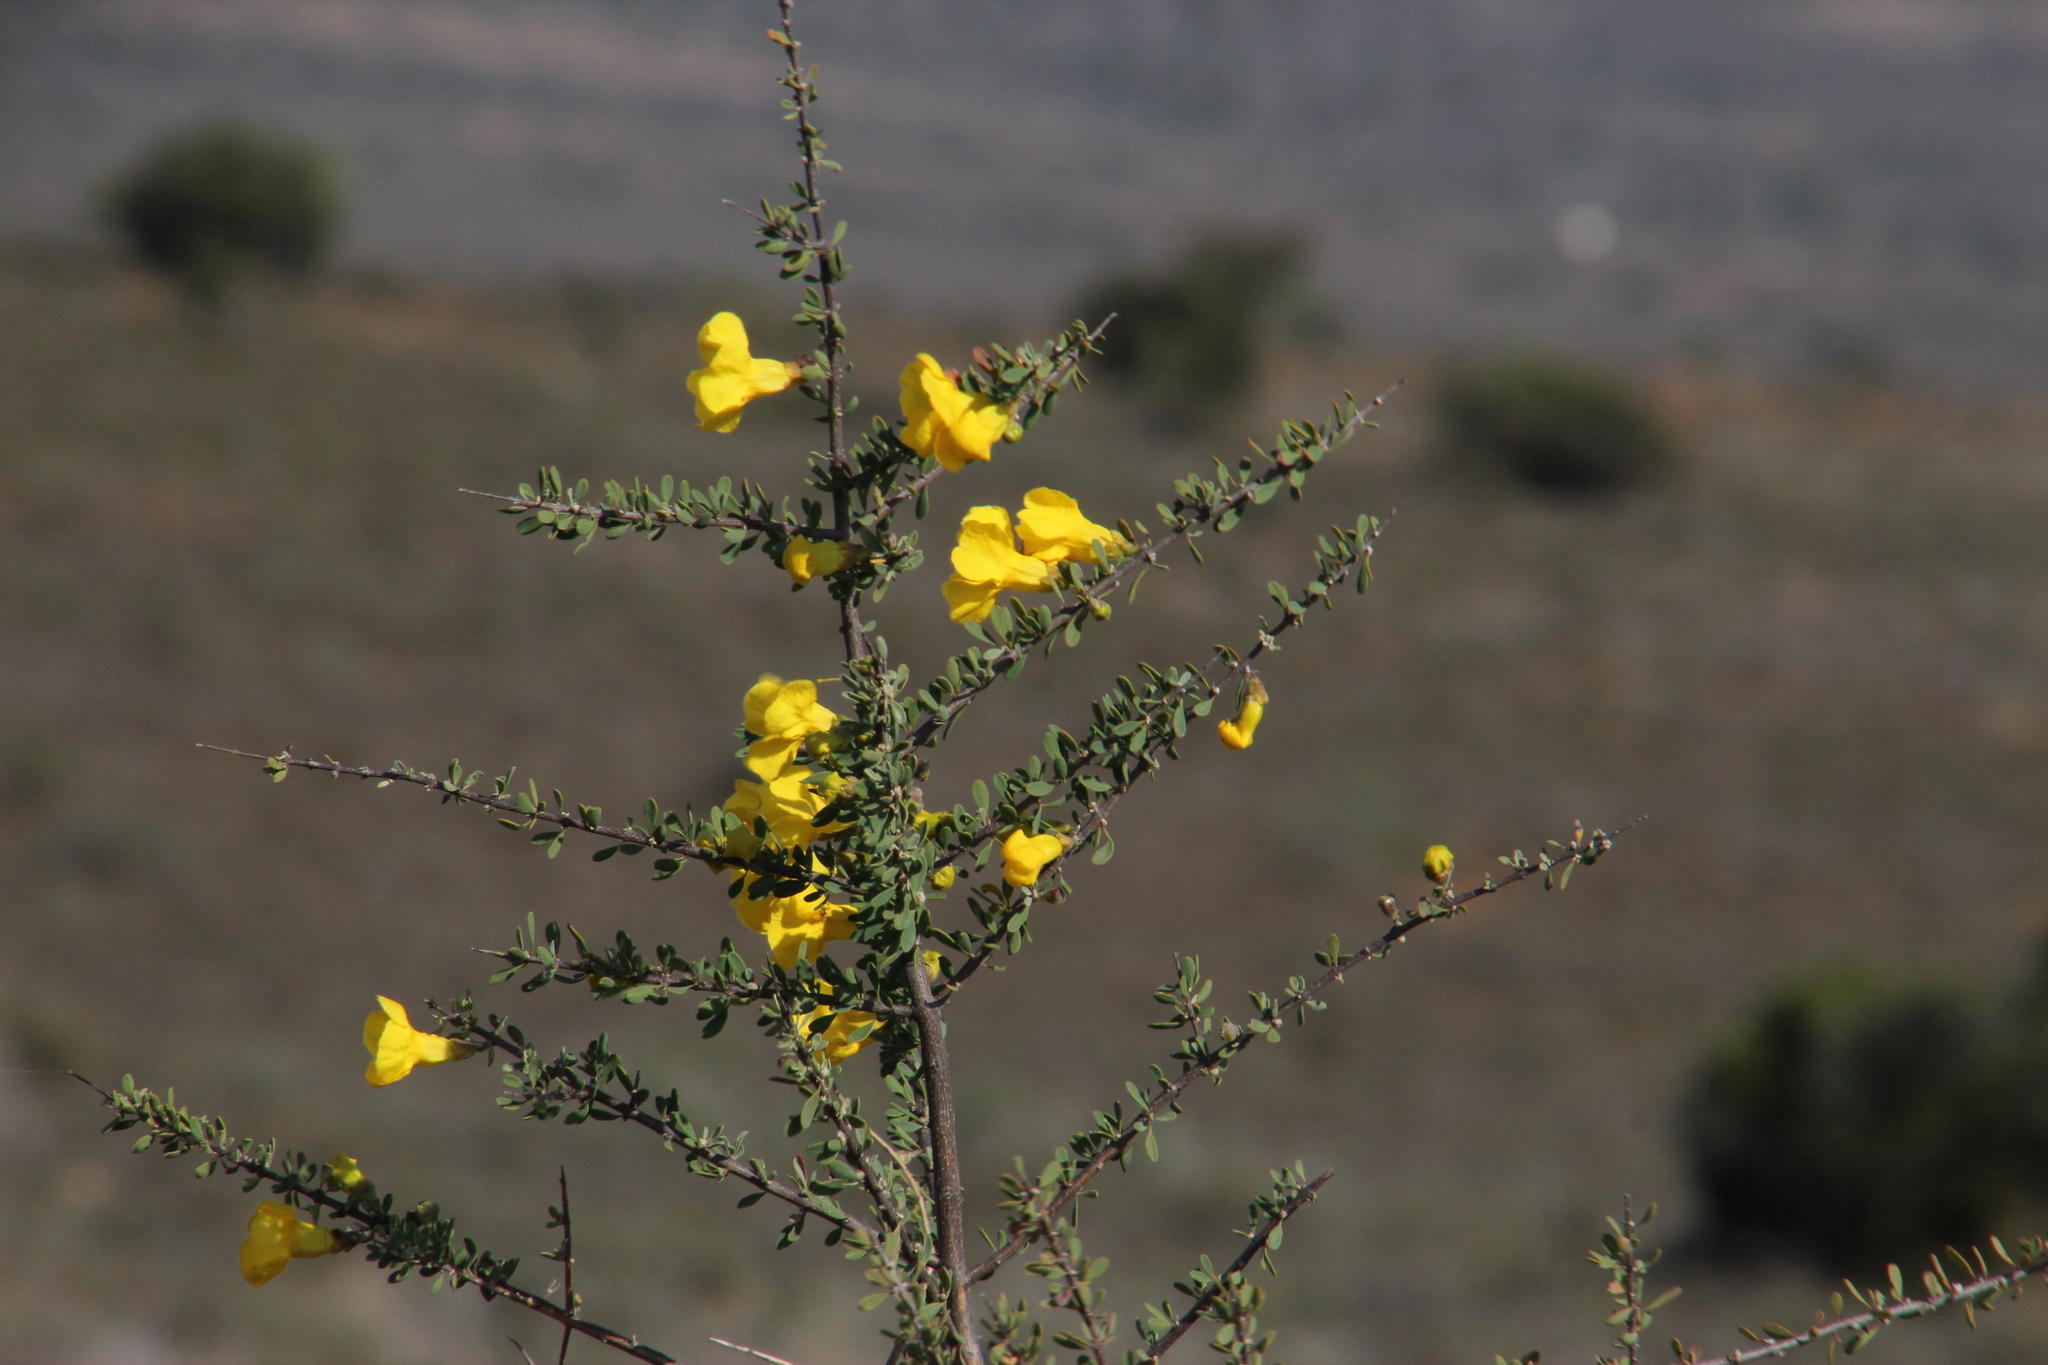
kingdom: Plantae
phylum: Tracheophyta
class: Magnoliopsida
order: Lamiales
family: Bignoniaceae
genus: Rhigozum
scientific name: Rhigozum obovatum
